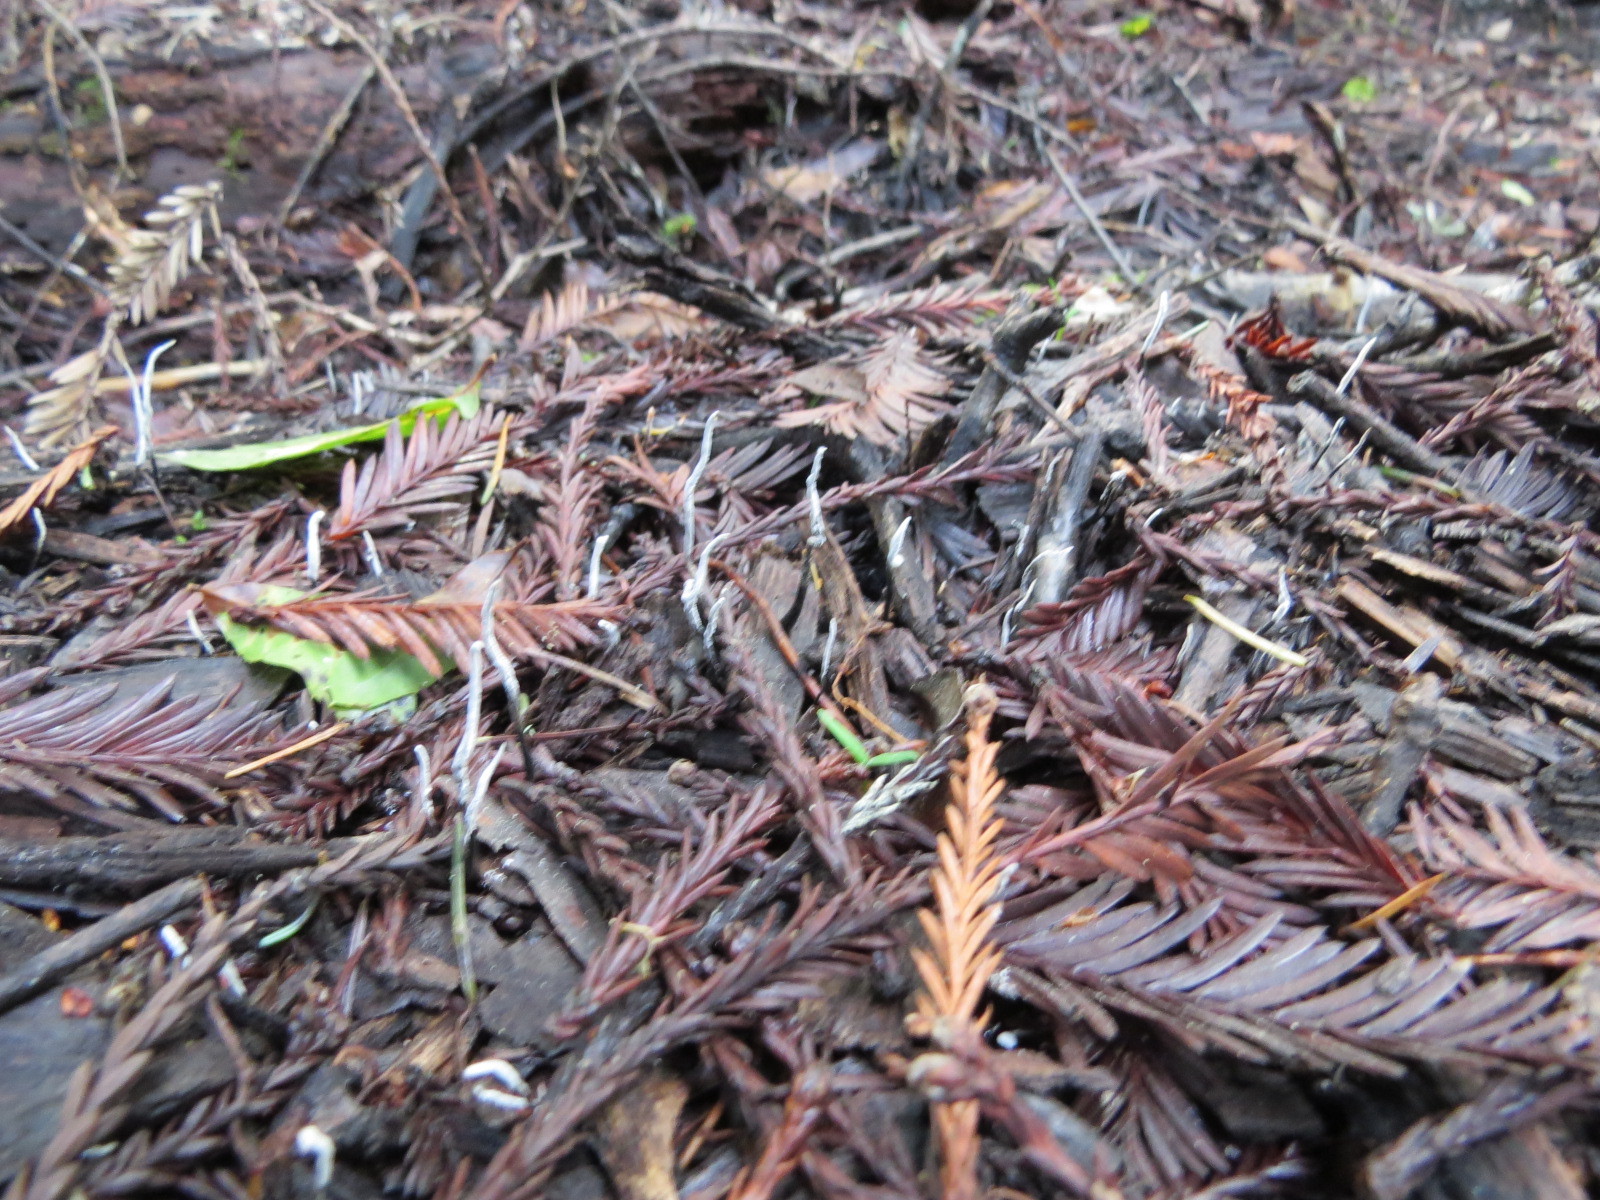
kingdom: Fungi
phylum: Ascomycota
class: Sordariomycetes
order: Xylariales
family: Xylariaceae
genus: Xylaria
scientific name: Xylaria hypoxylon
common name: Candle-snuff fungus
